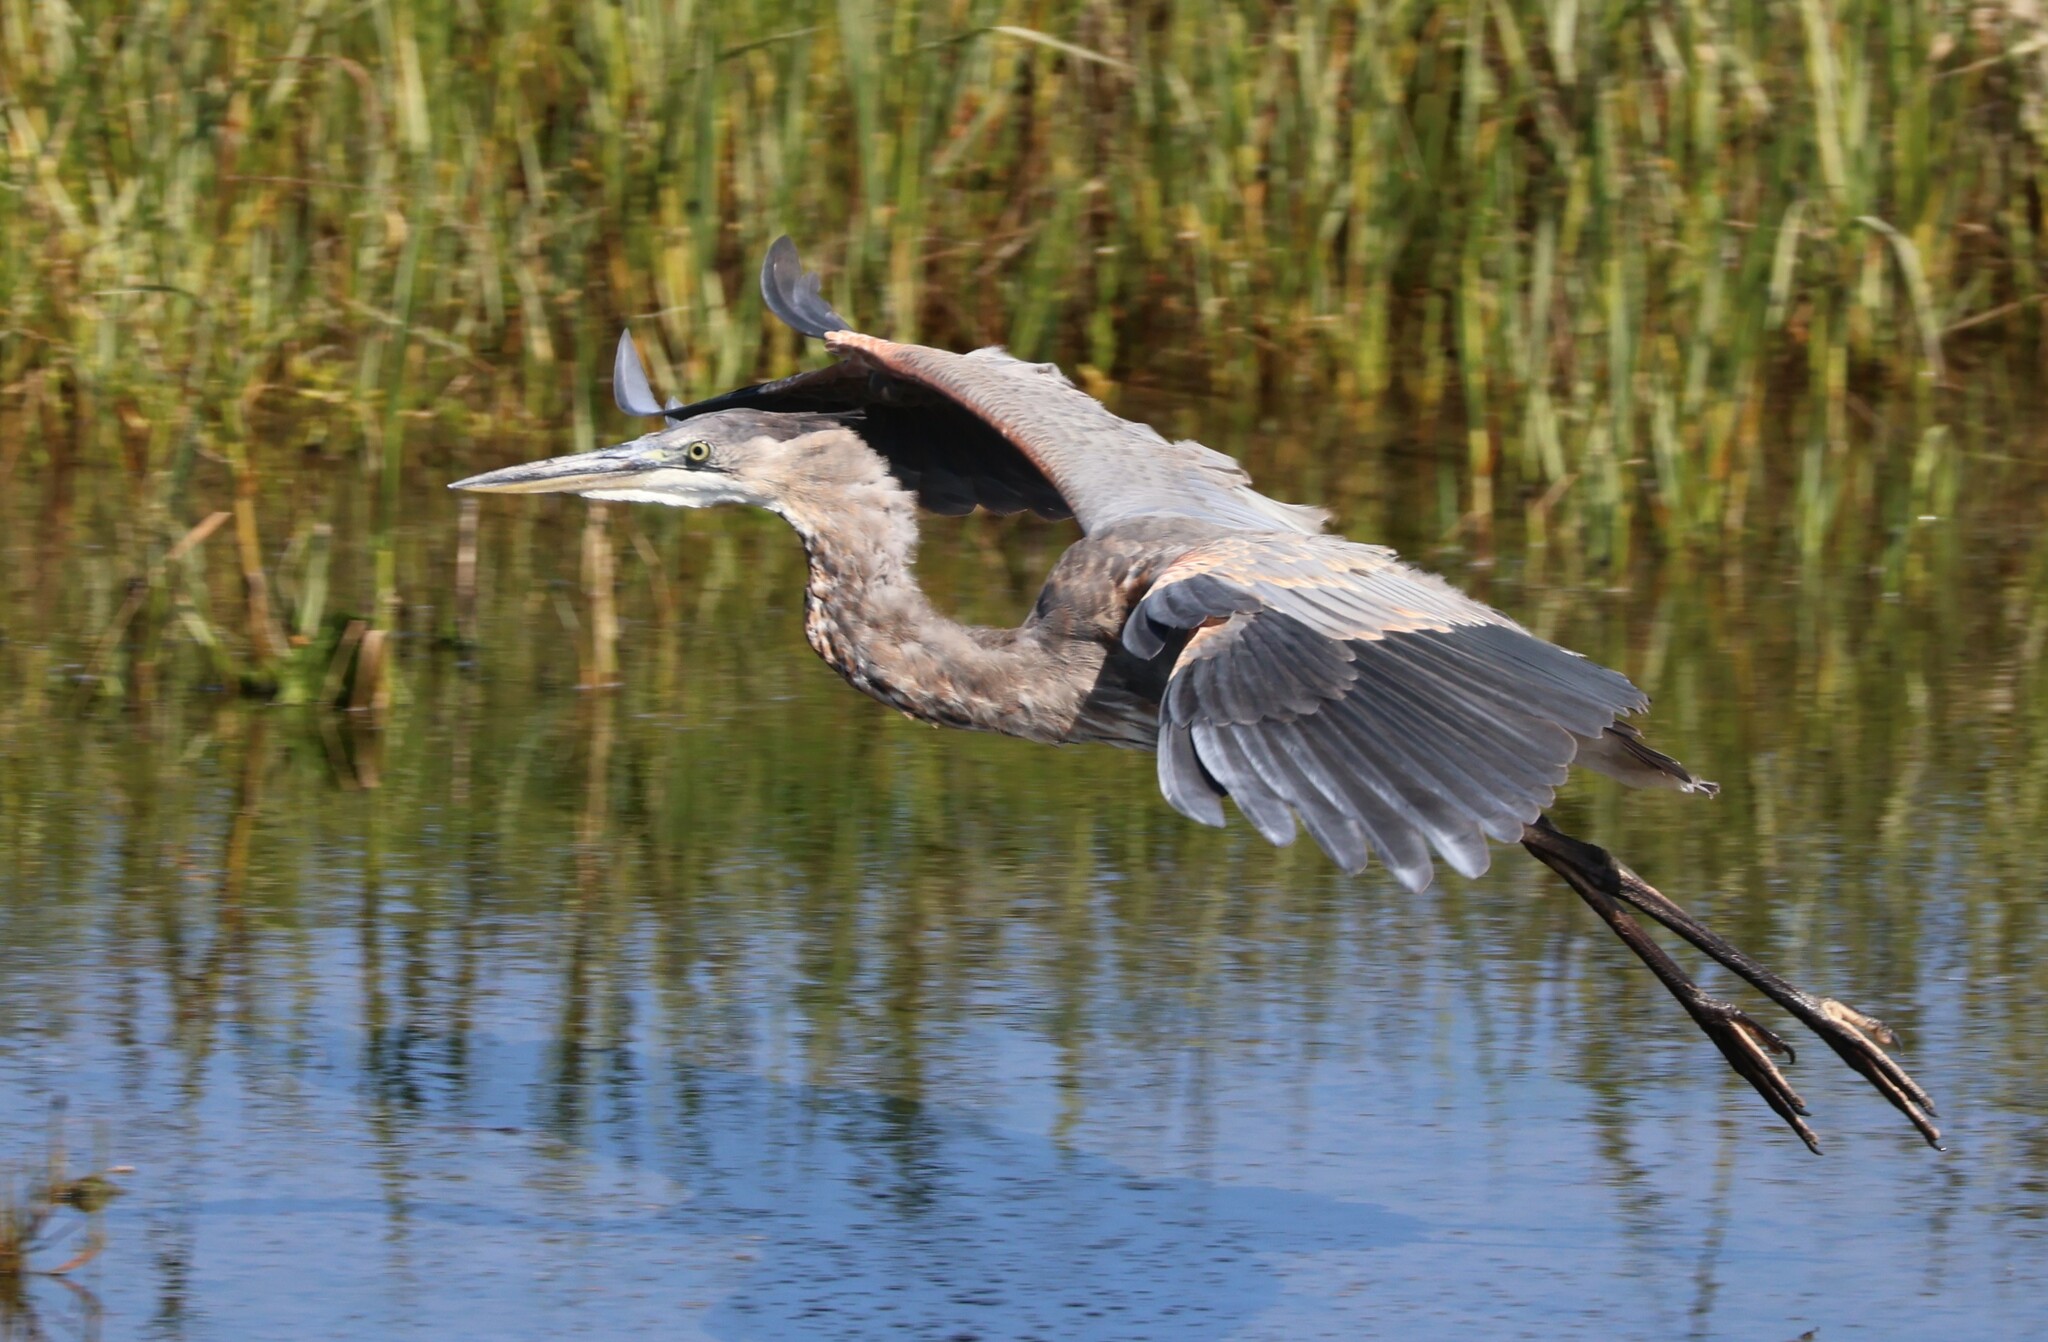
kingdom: Animalia
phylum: Chordata
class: Aves
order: Pelecaniformes
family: Ardeidae
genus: Ardea
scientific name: Ardea herodias
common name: Great blue heron
